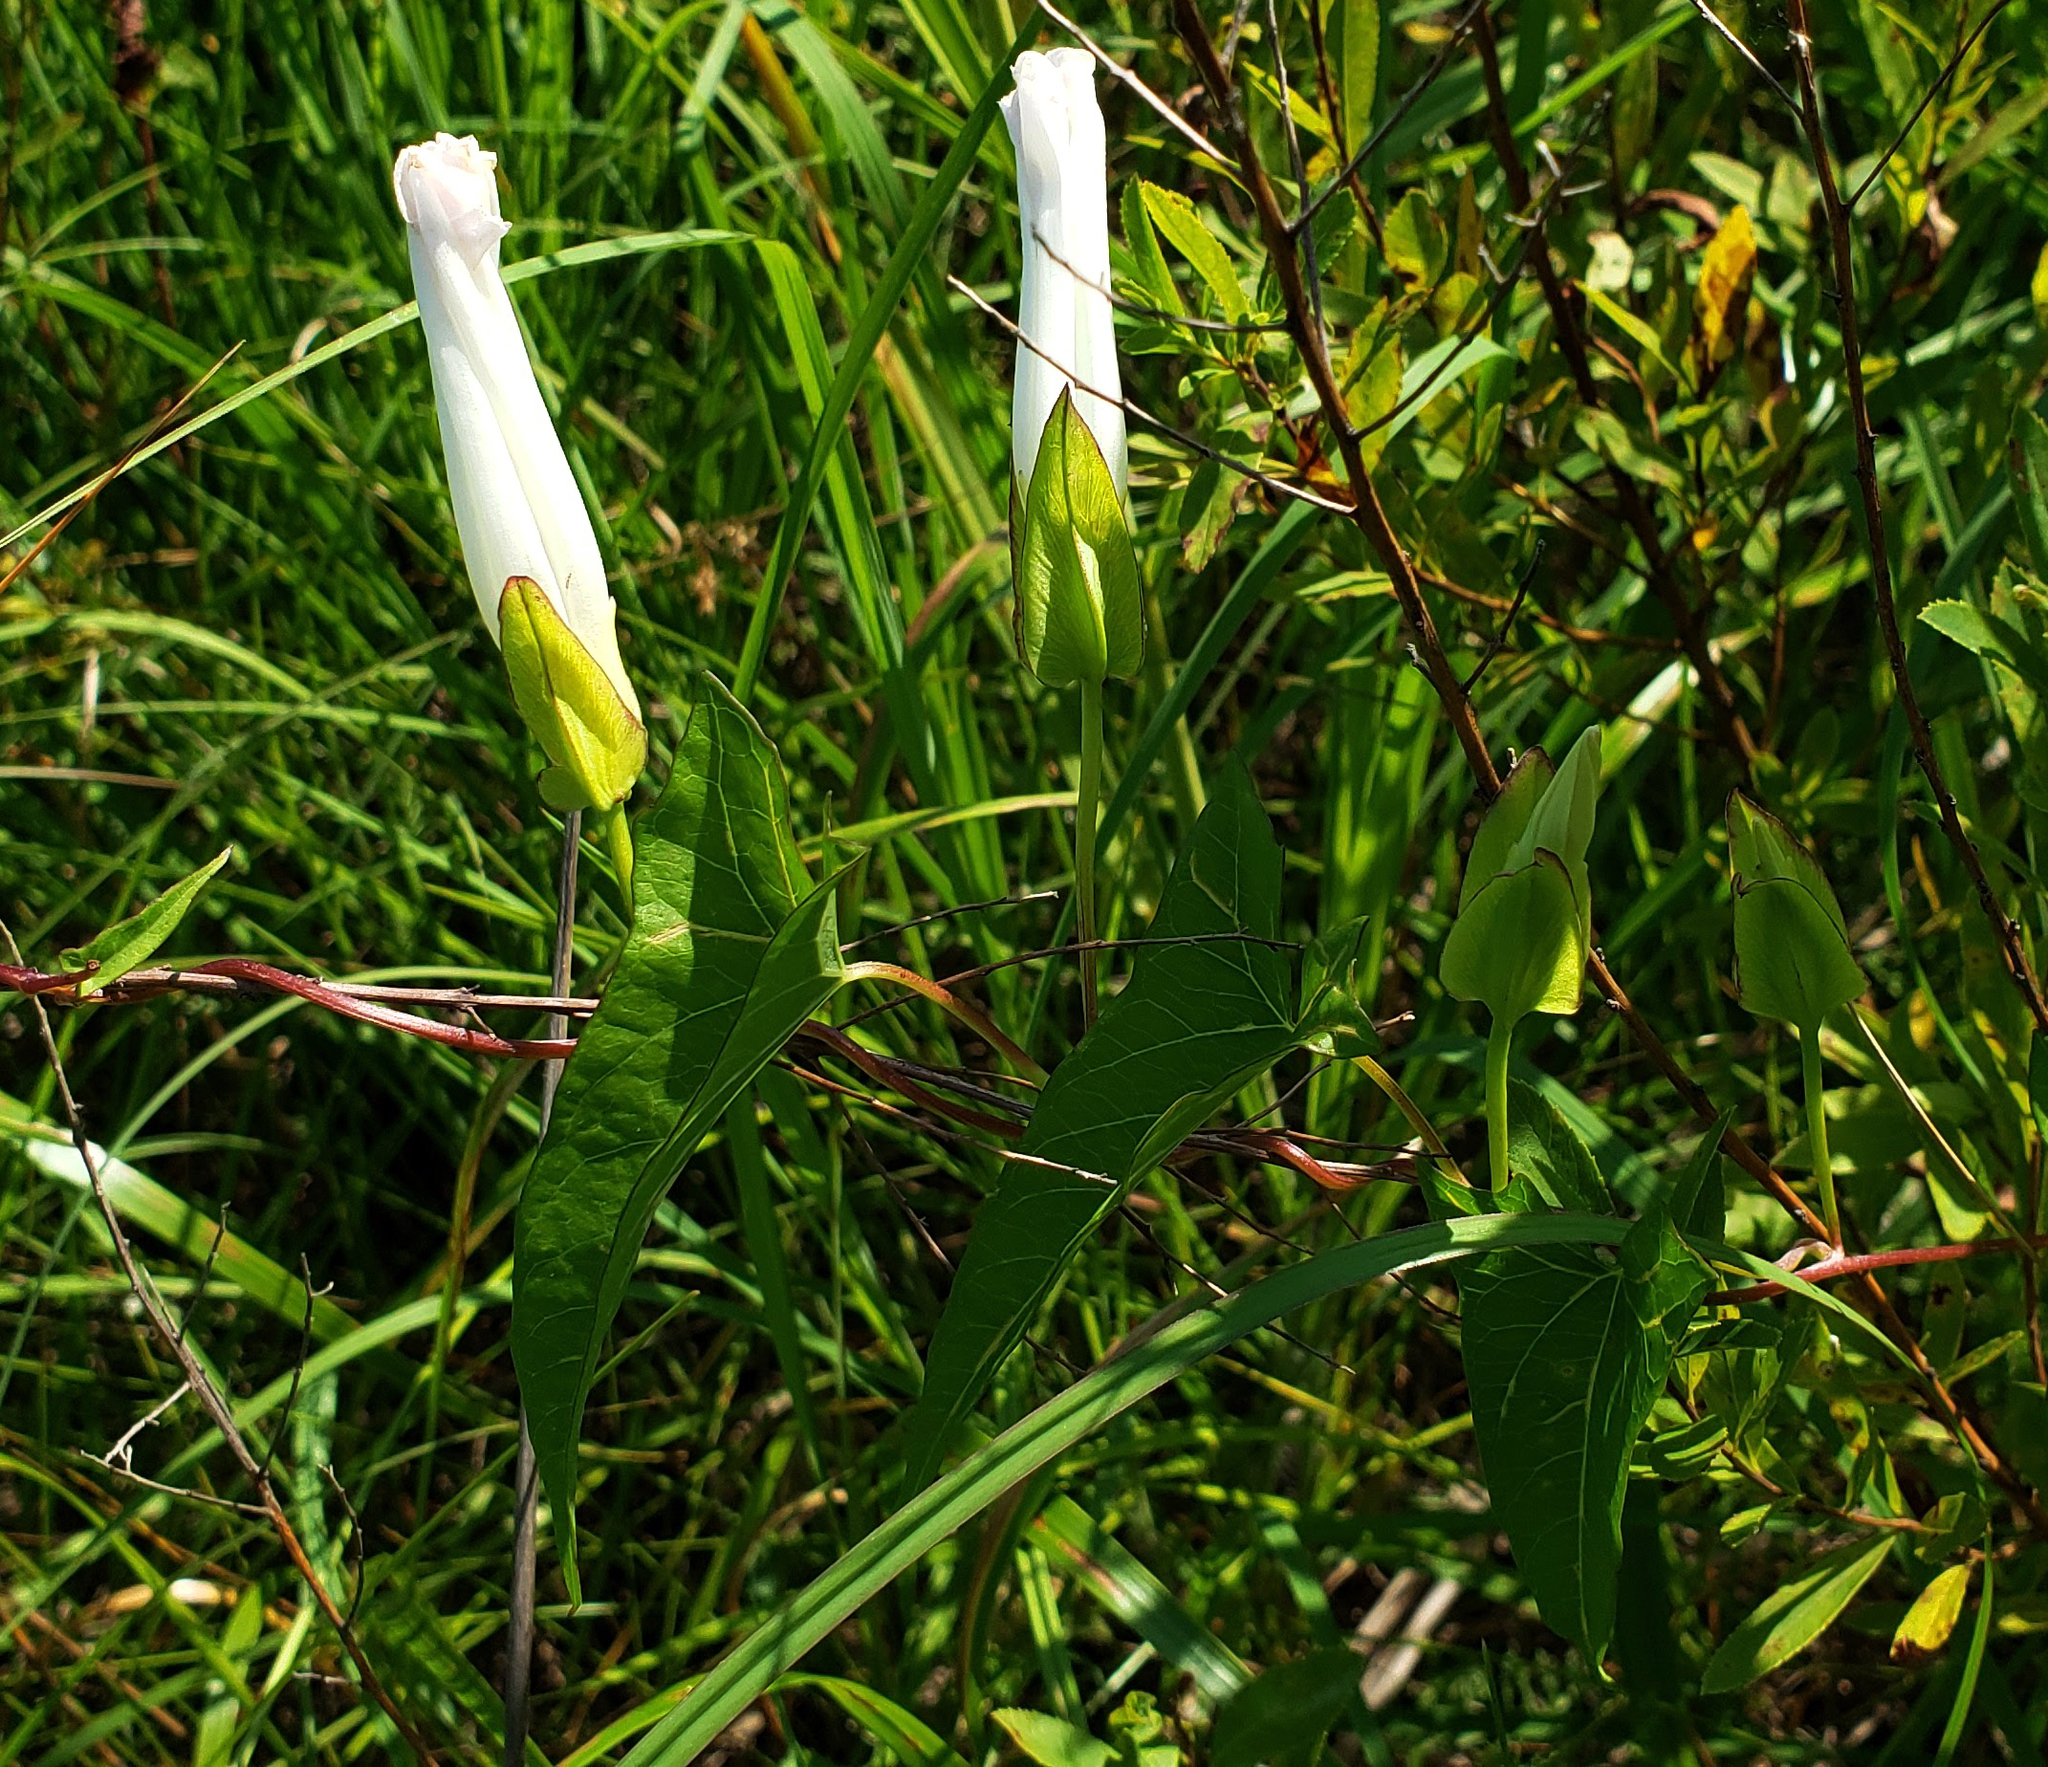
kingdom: Plantae
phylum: Tracheophyta
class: Magnoliopsida
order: Solanales
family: Convolvulaceae
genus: Calystegia
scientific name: Calystegia sepium
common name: Hedge bindweed
